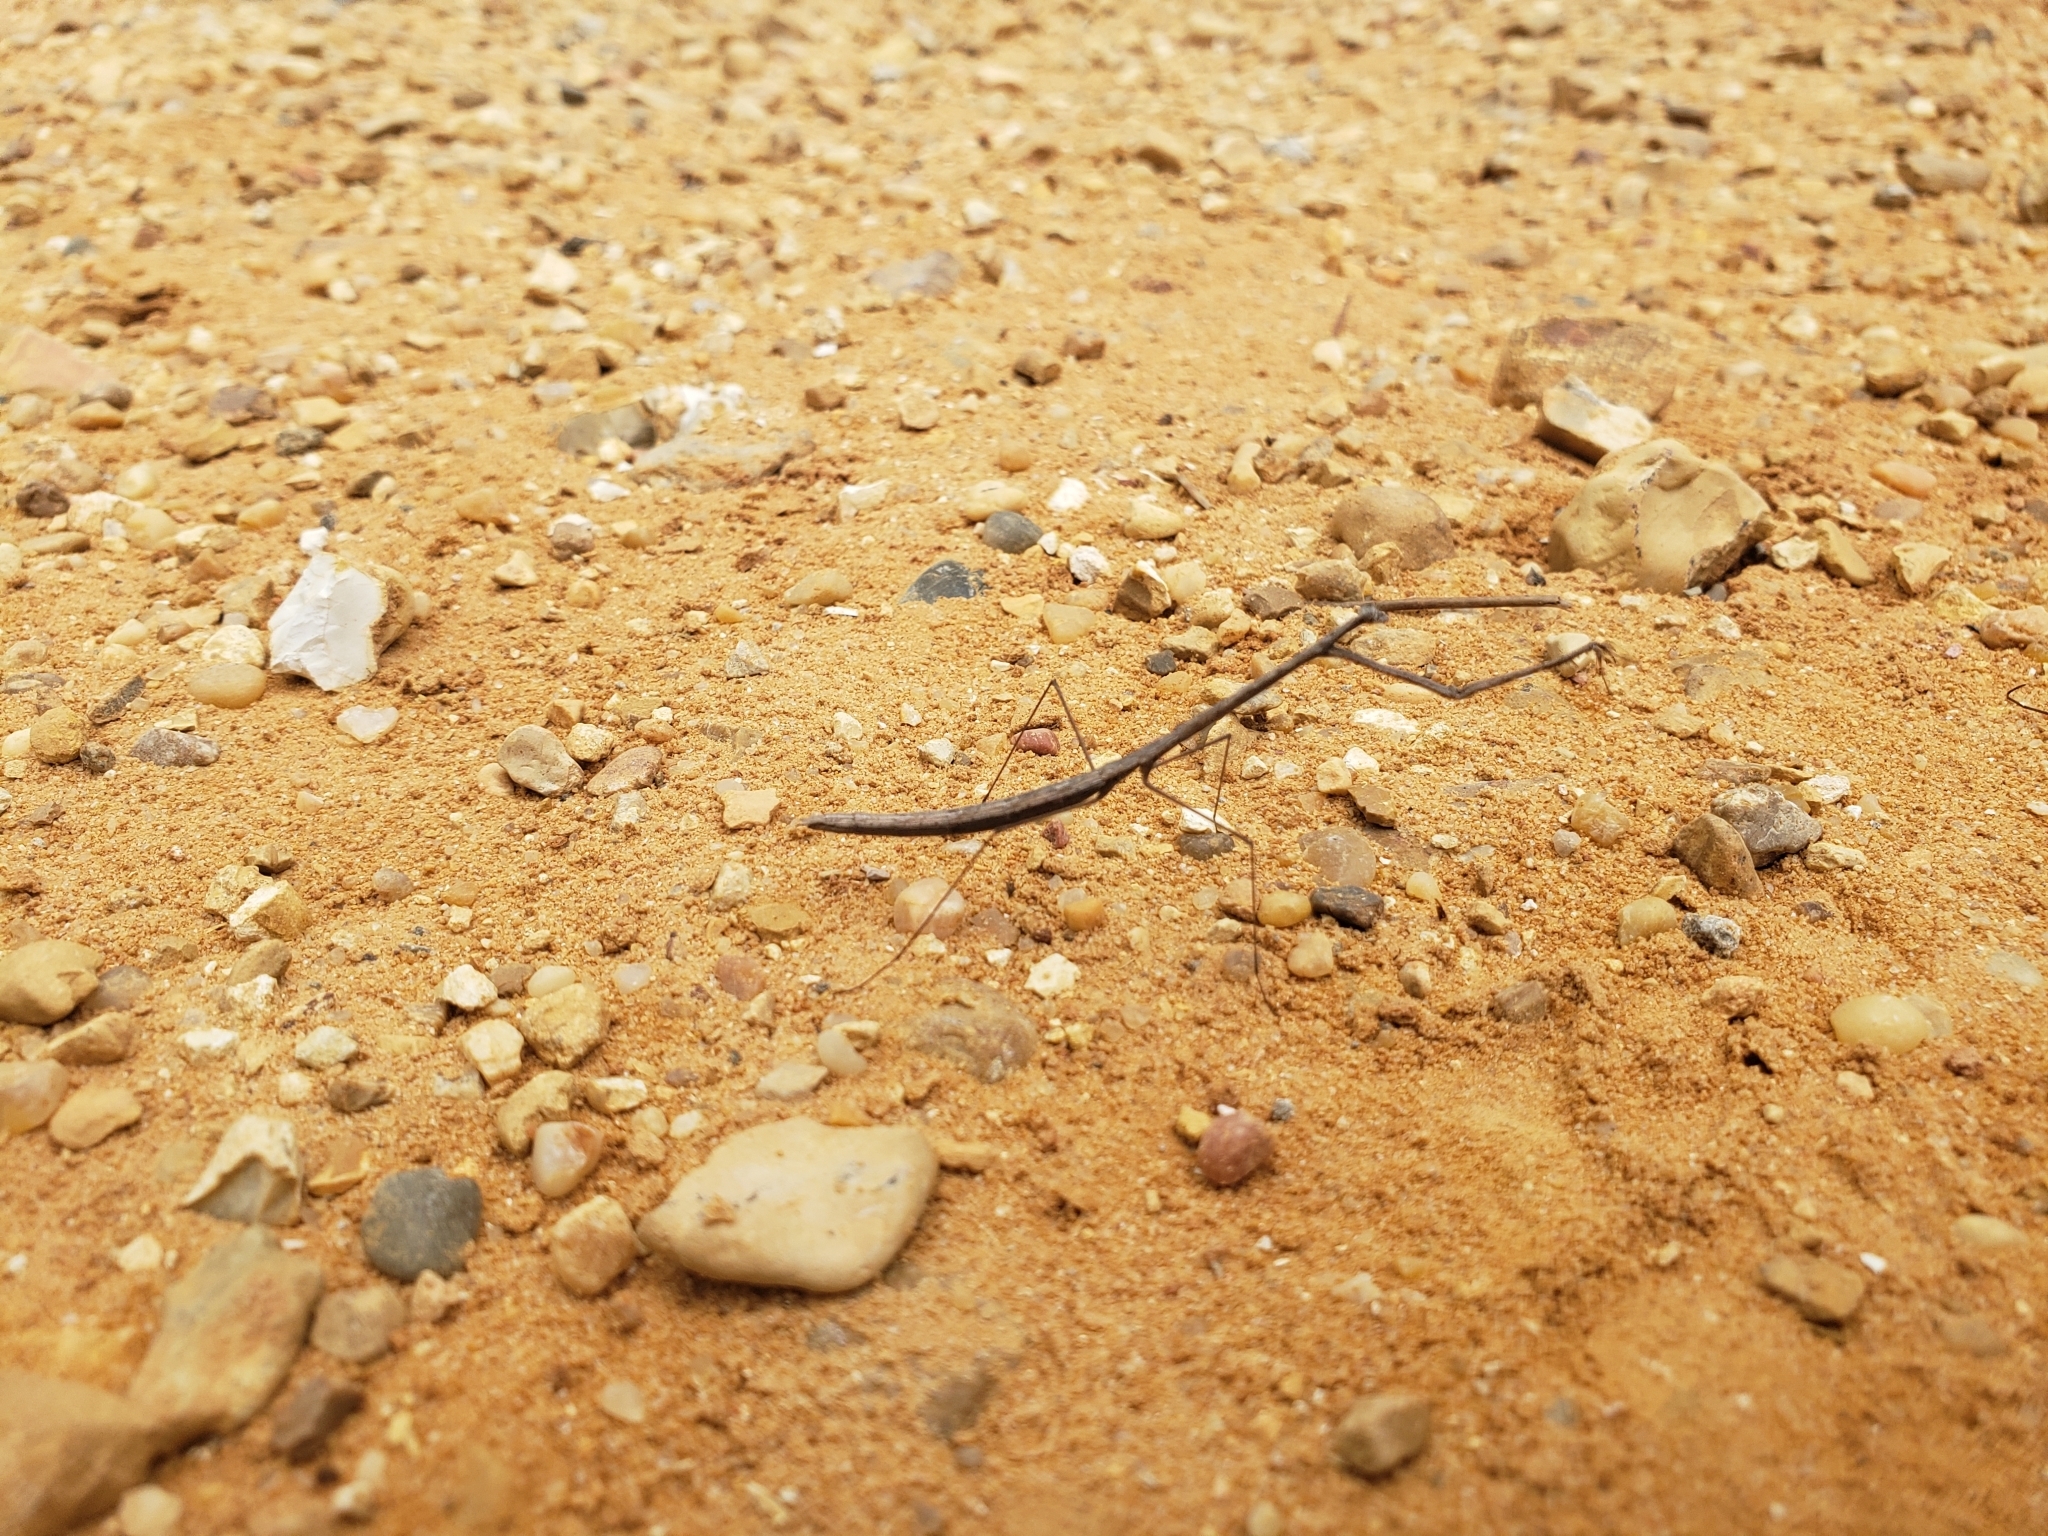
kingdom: Animalia
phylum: Arthropoda
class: Insecta
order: Mantodea
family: Thespidae
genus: Thesprotia
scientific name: Thesprotia graminis
